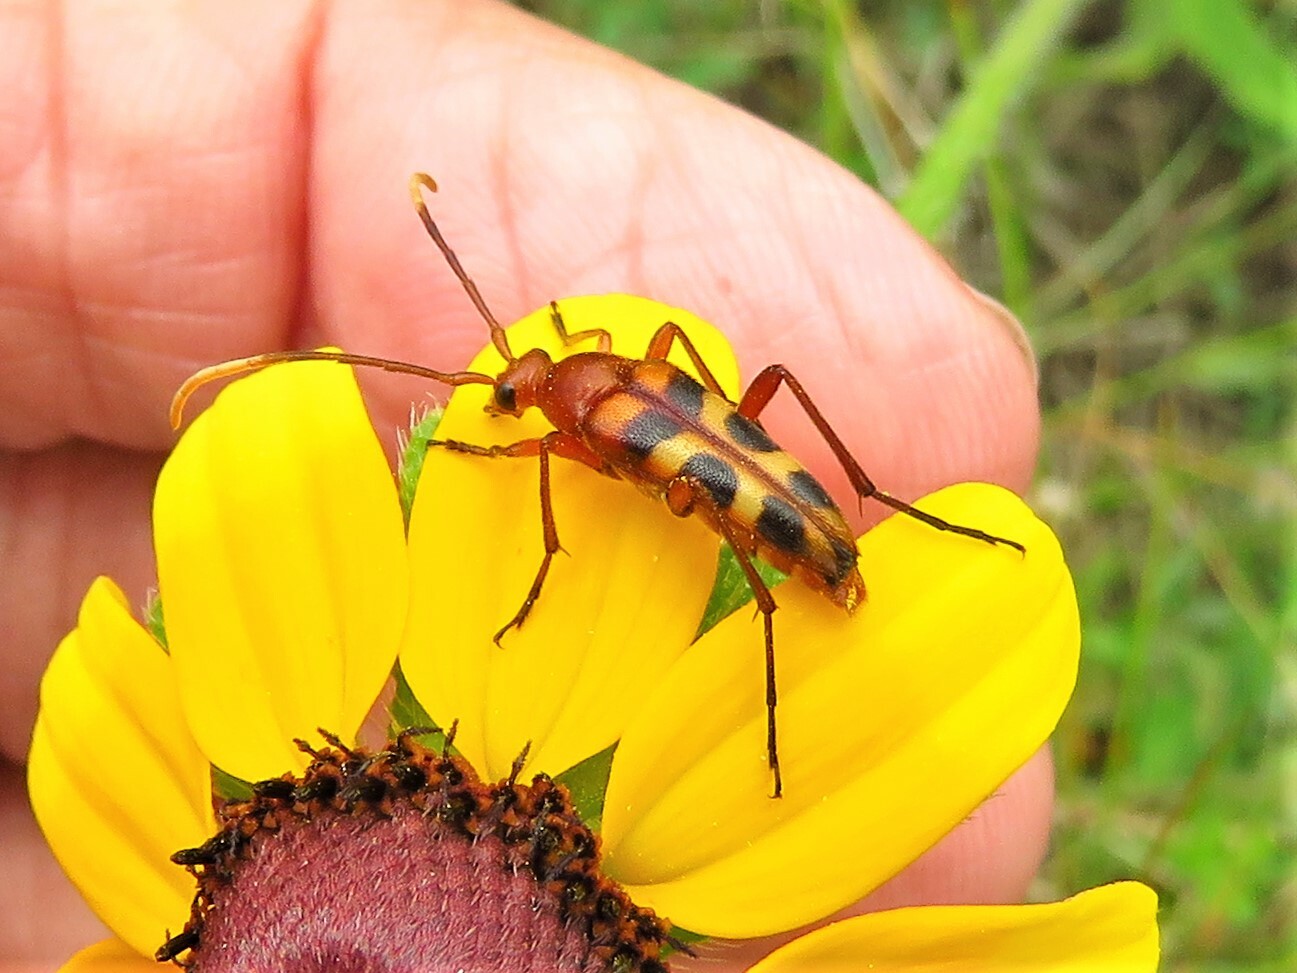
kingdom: Animalia
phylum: Arthropoda
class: Insecta
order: Coleoptera
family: Cerambycidae
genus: Strangalia
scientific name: Strangalia sexnotata
